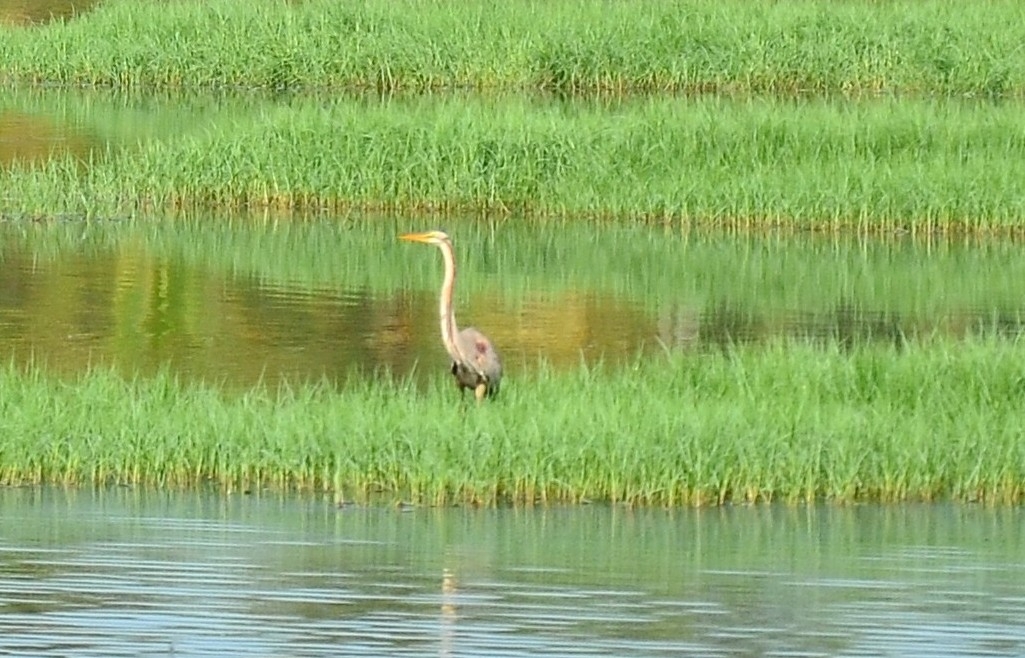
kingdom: Animalia
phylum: Chordata
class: Aves
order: Pelecaniformes
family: Ardeidae
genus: Ardea
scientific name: Ardea purpurea
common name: Purple heron
